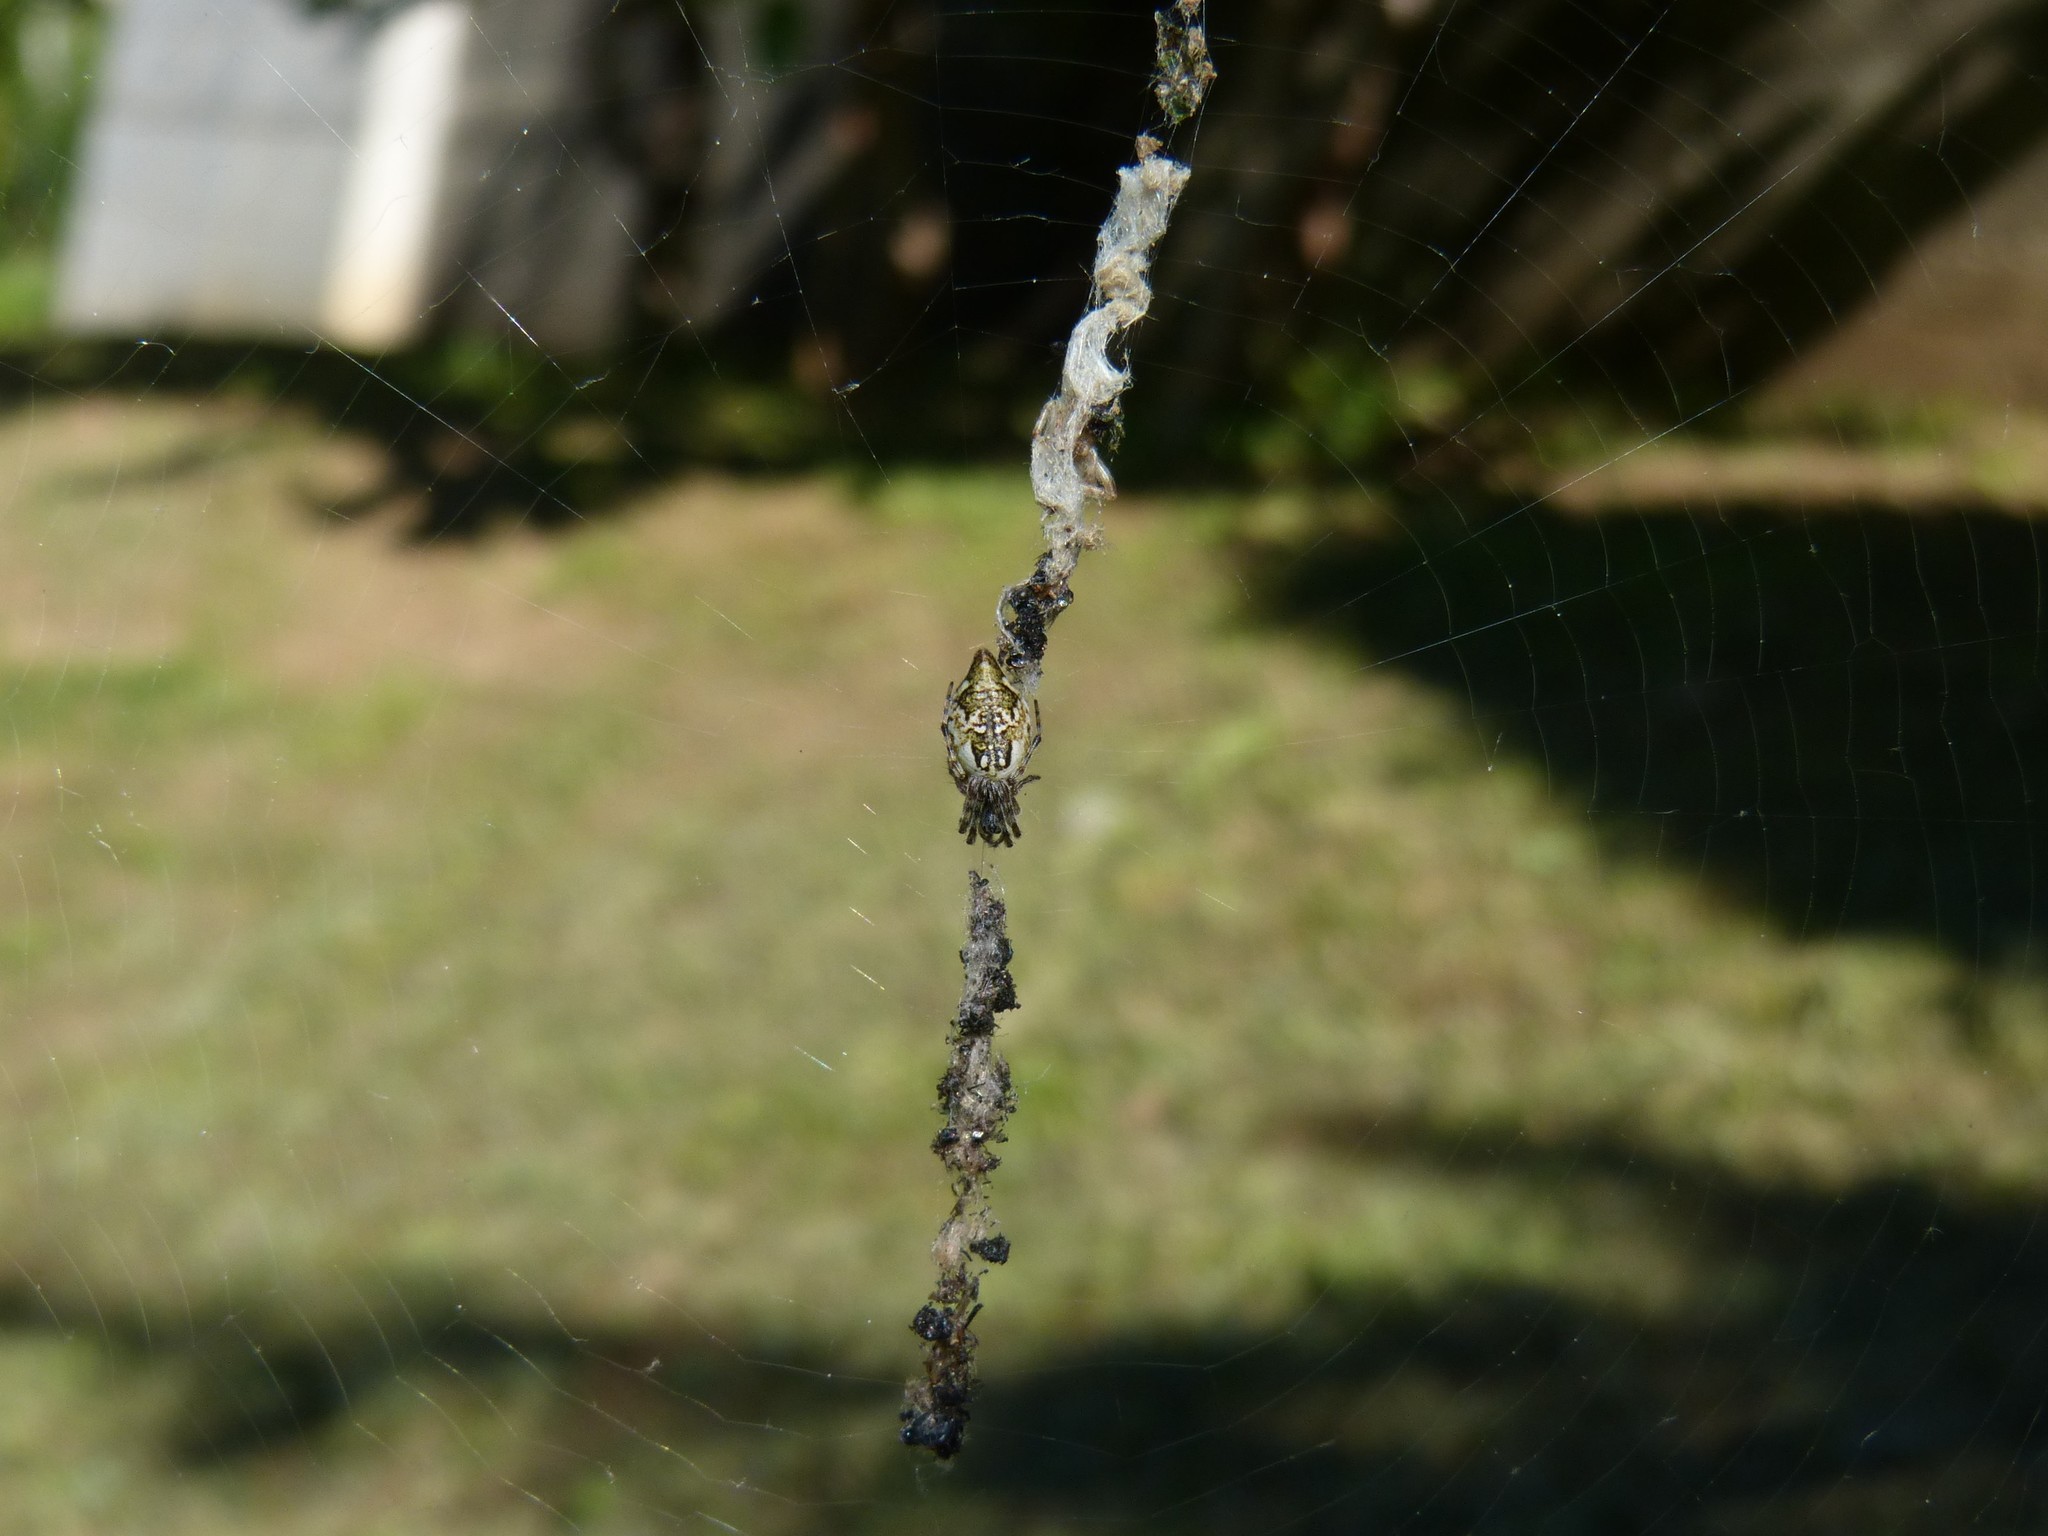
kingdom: Animalia
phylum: Arthropoda
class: Arachnida
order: Araneae
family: Araneidae
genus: Cyclosa
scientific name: Cyclosa conica
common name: Conical trashline orbweaver
